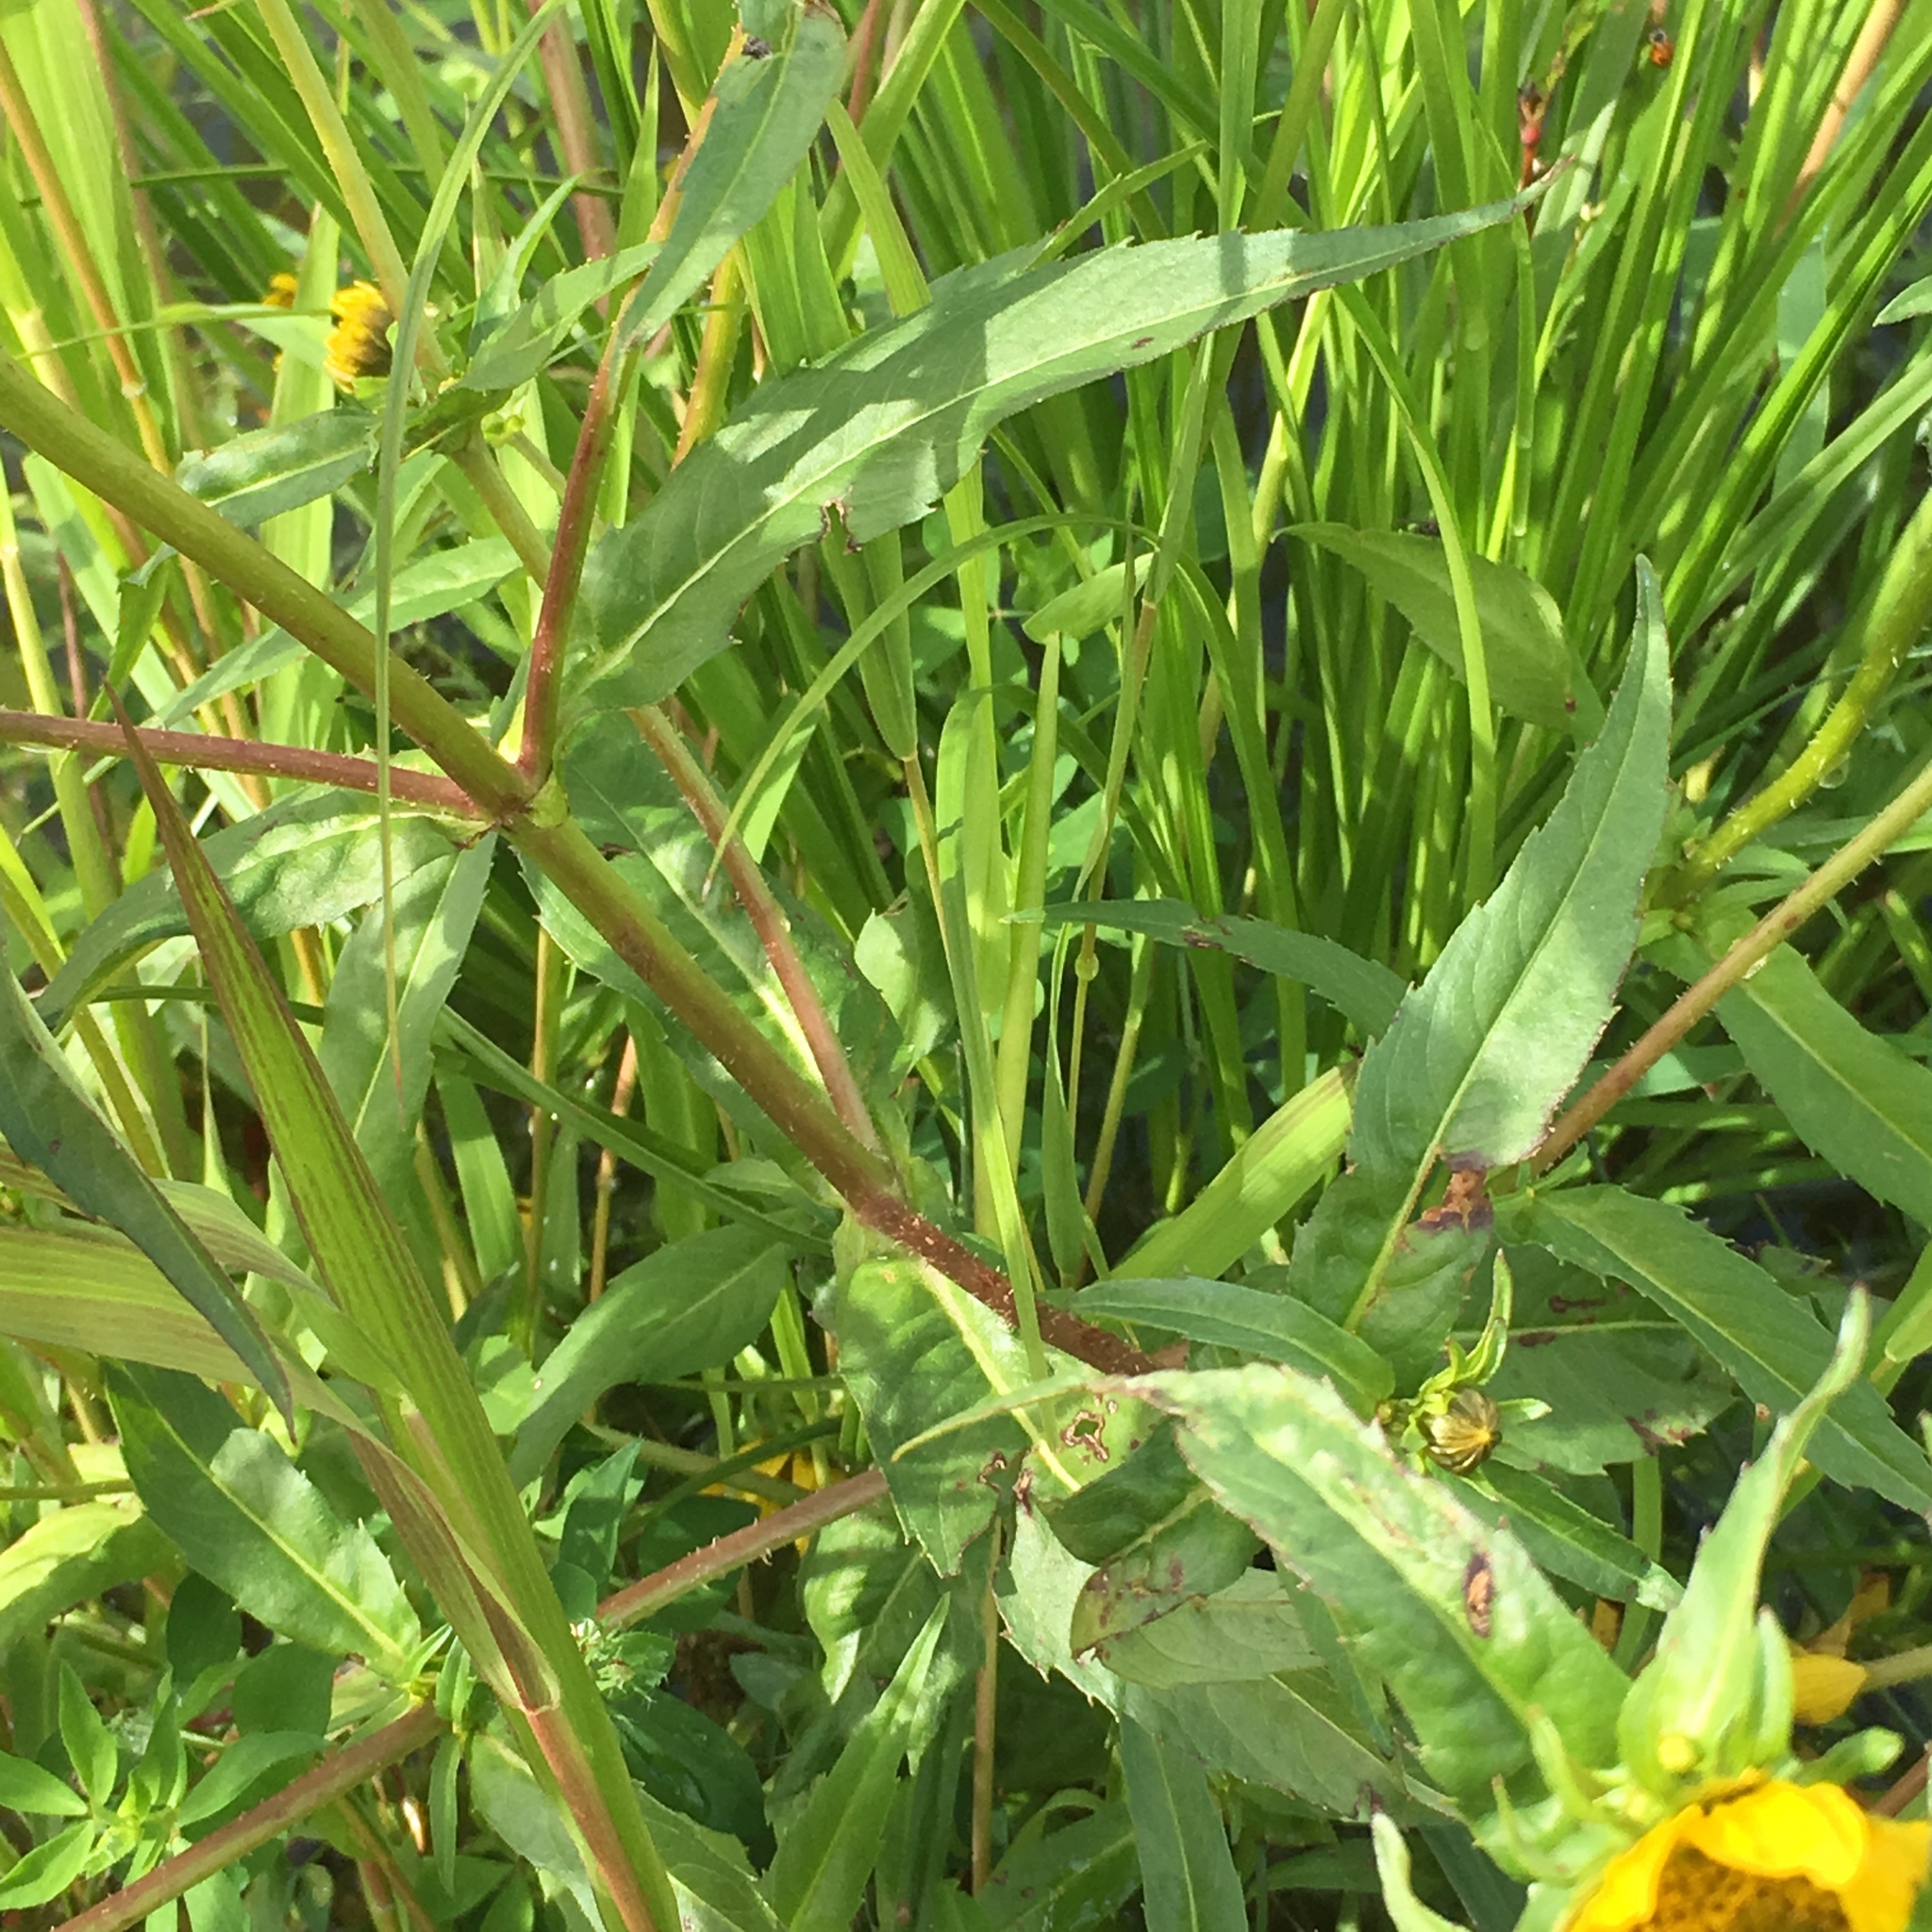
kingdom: Plantae
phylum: Tracheophyta
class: Magnoliopsida
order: Asterales
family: Asteraceae
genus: Bidens
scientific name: Bidens cernua
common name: Nodding bur-marigold
